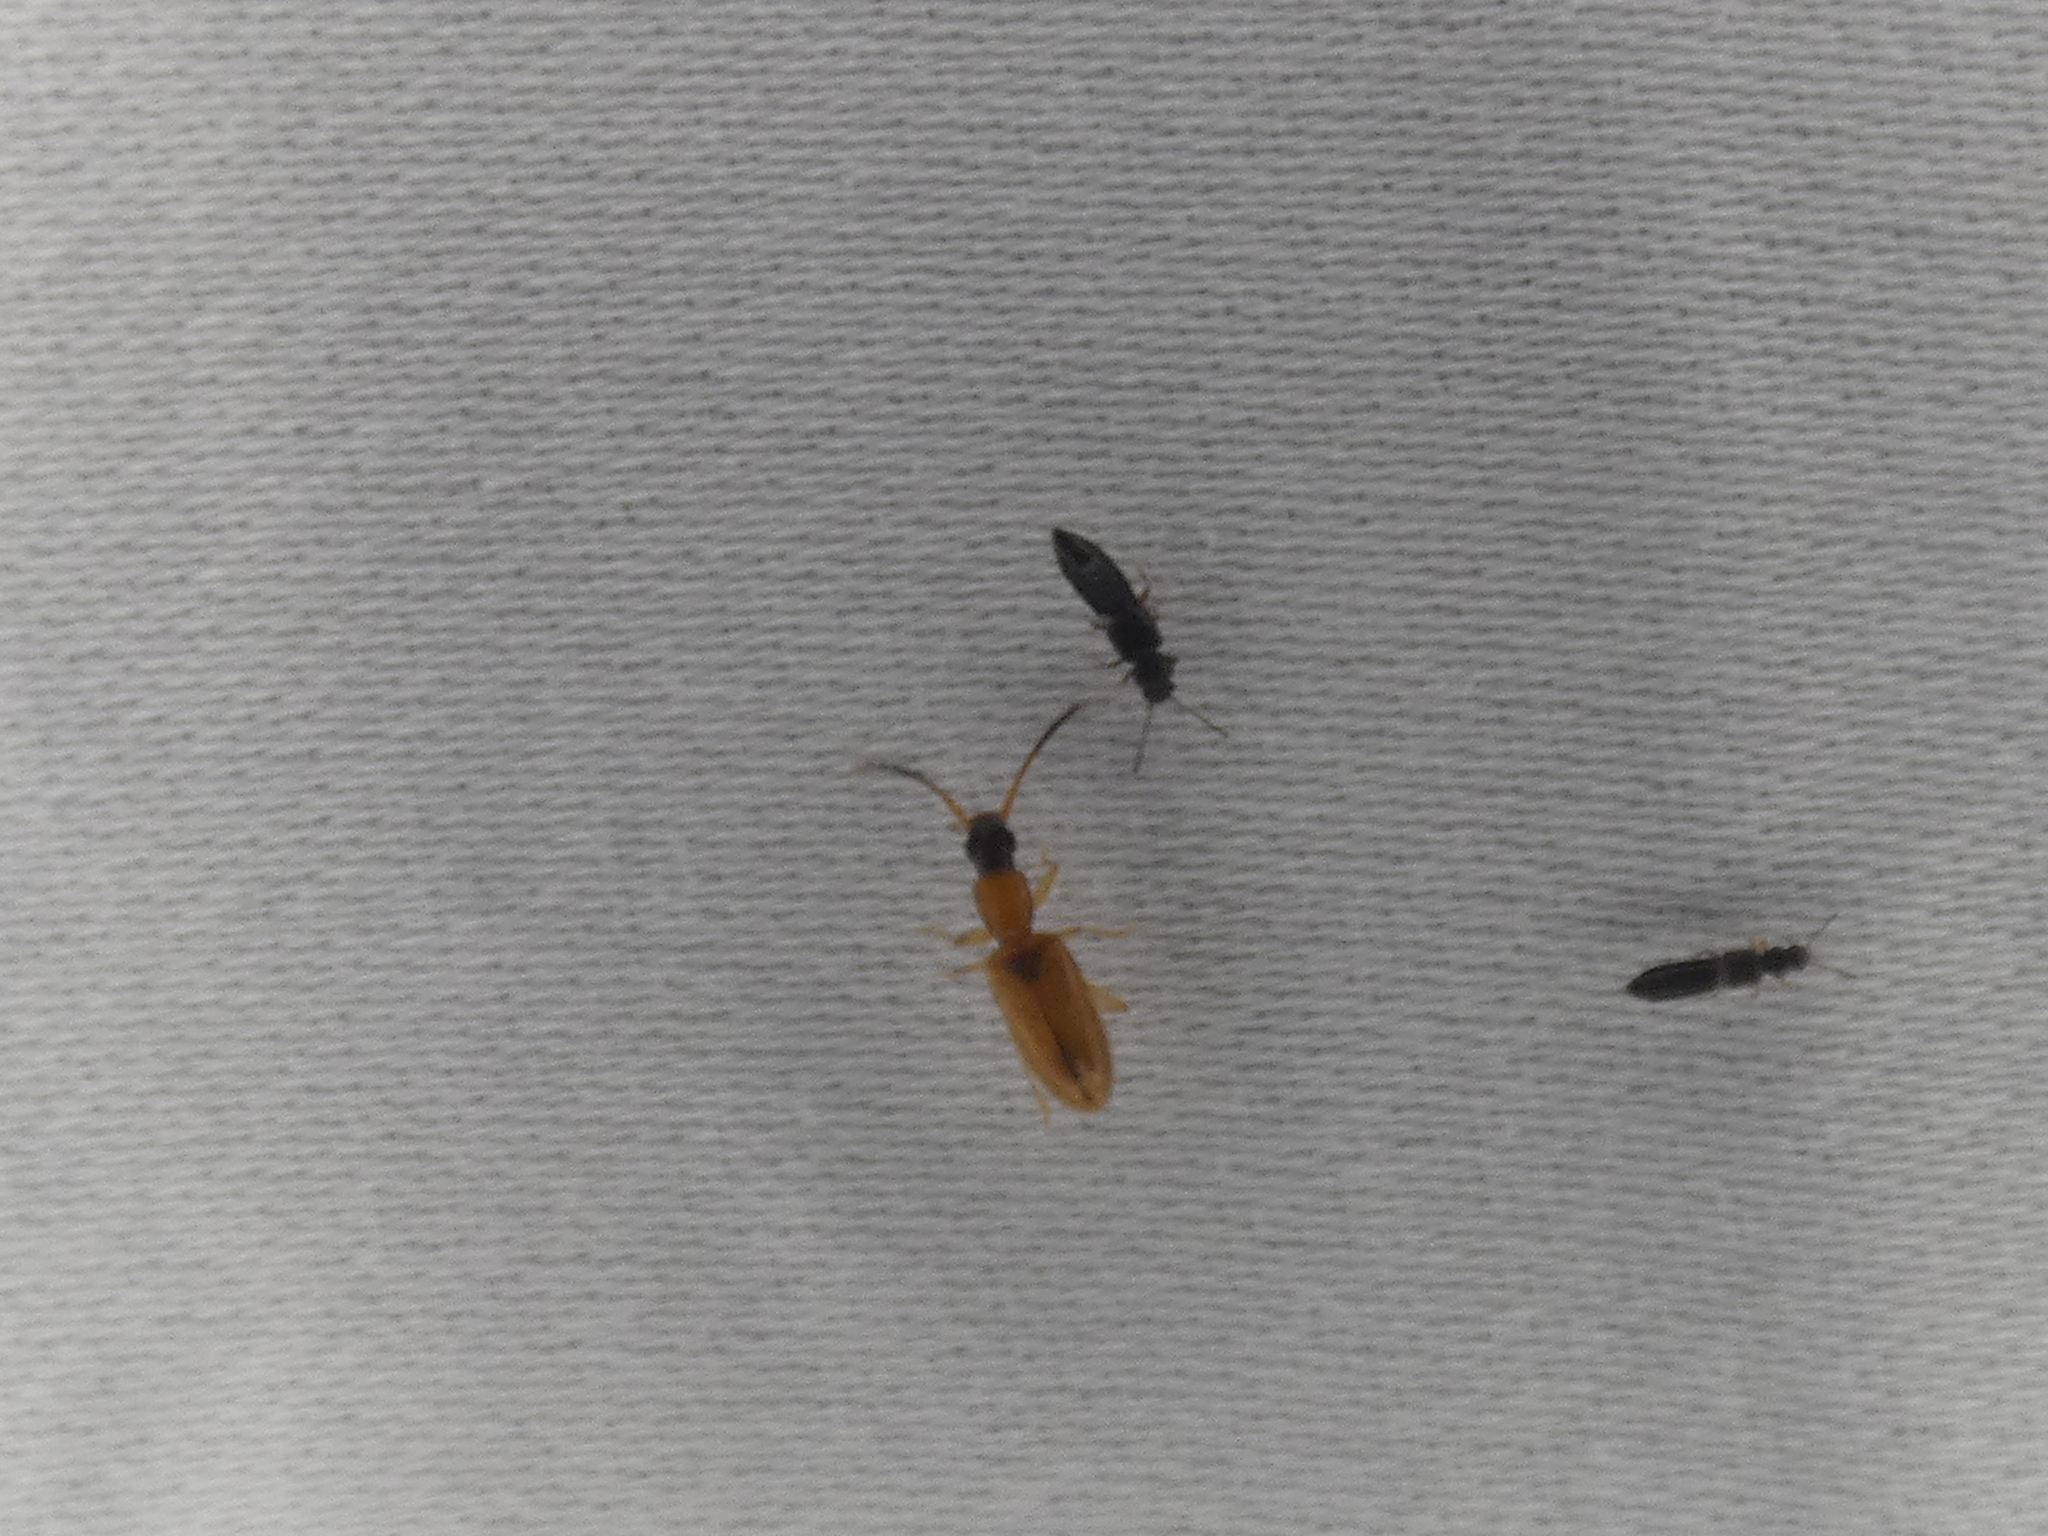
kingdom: Animalia
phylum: Arthropoda
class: Insecta
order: Coleoptera
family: Silvanidae
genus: Telephanus
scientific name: Telephanus velox
